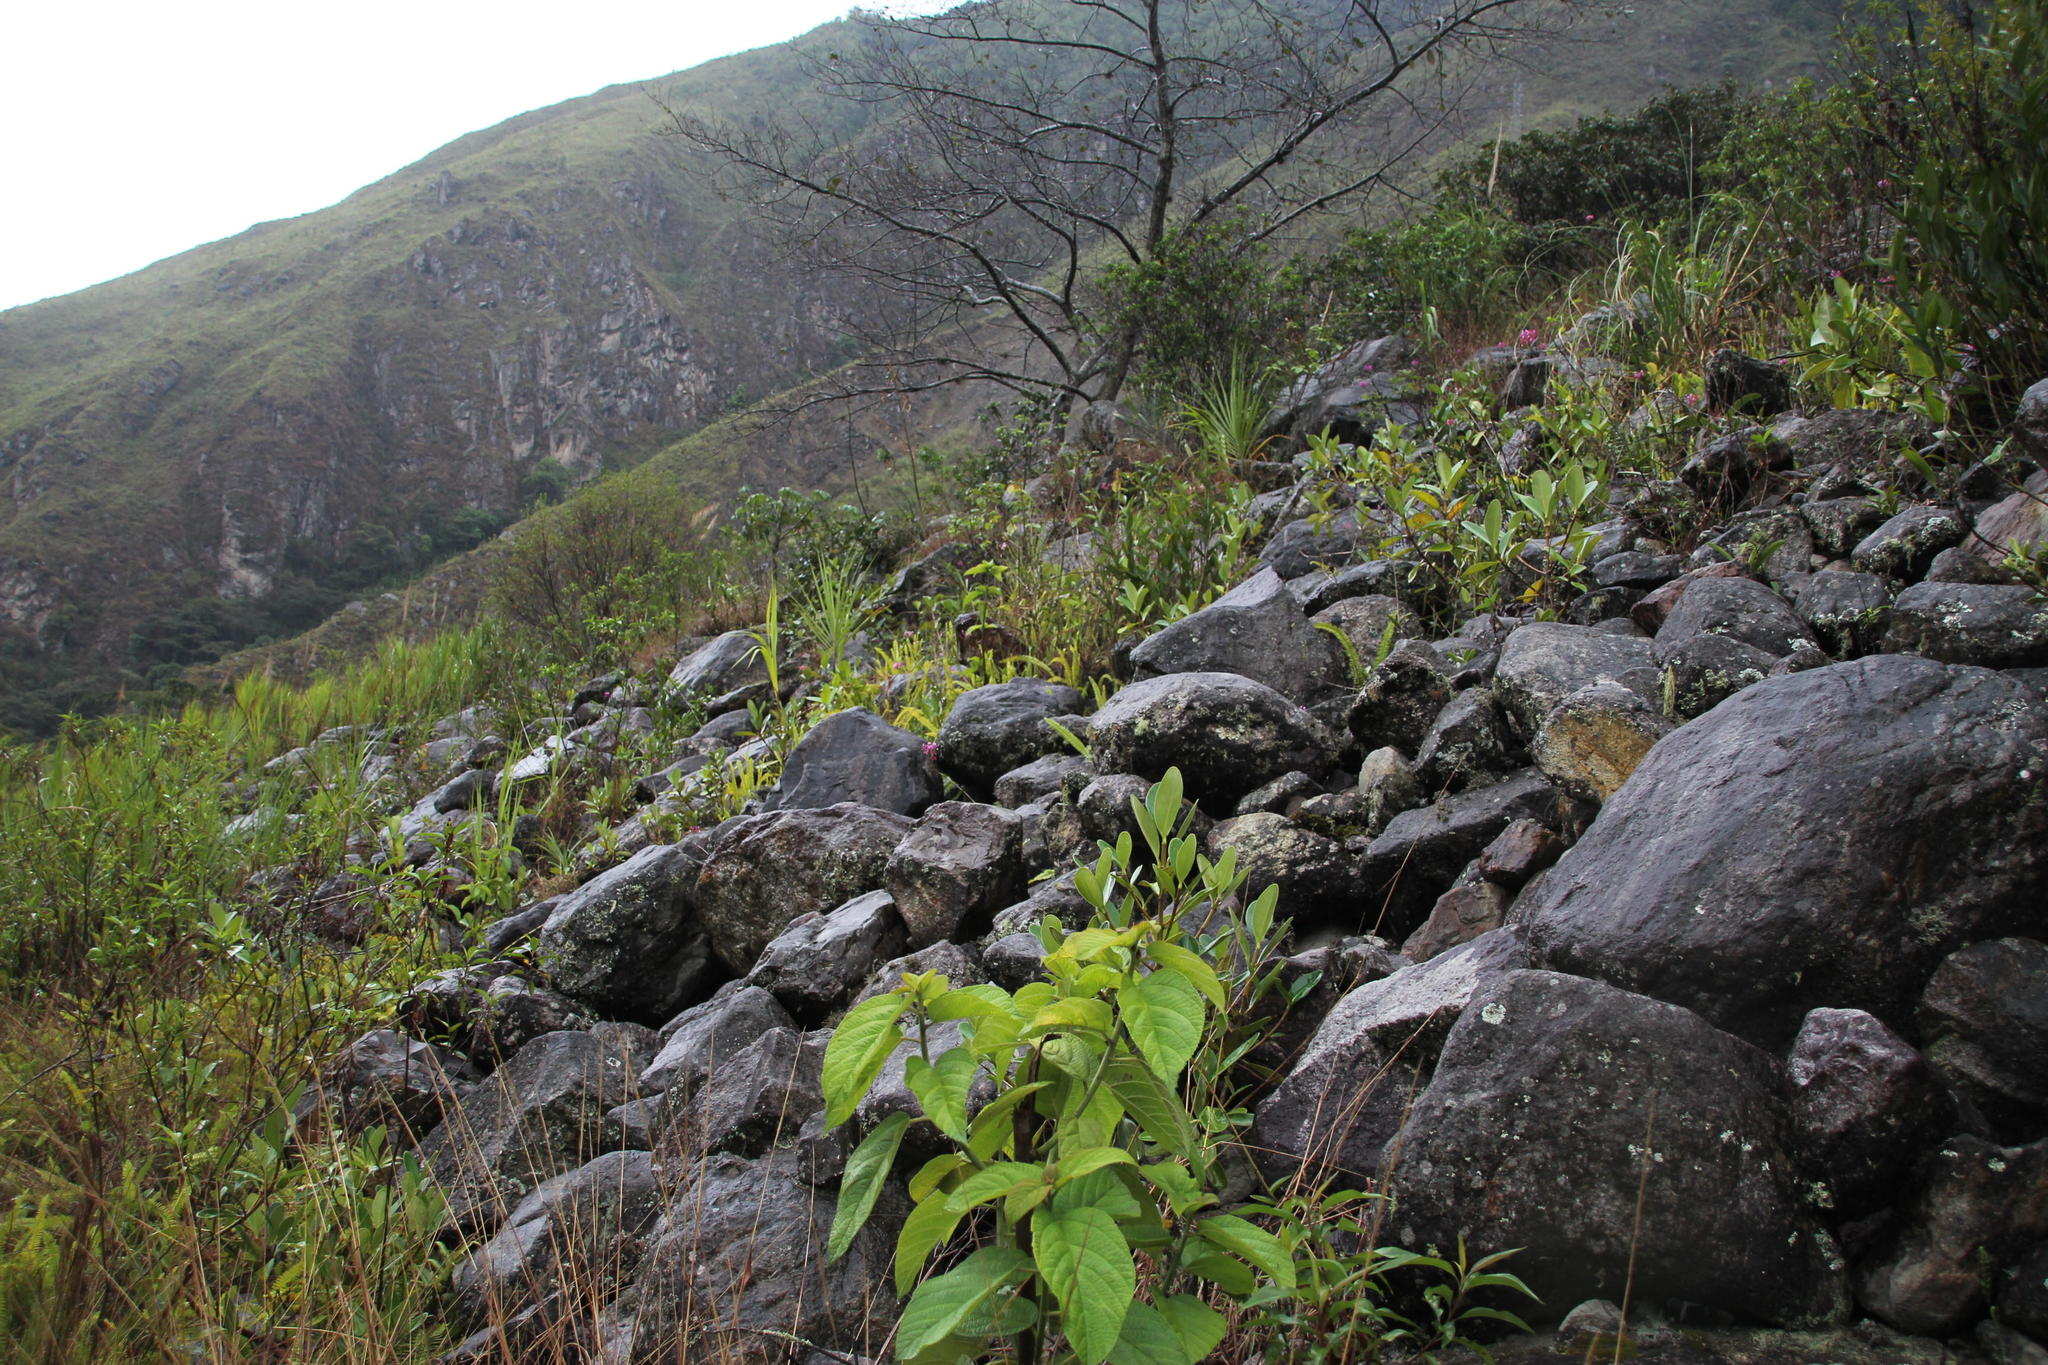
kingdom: Plantae
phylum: Tracheophyta
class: Liliopsida
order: Asparagales
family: Orchidaceae
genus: Epidendrum
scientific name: Epidendrum secundum
